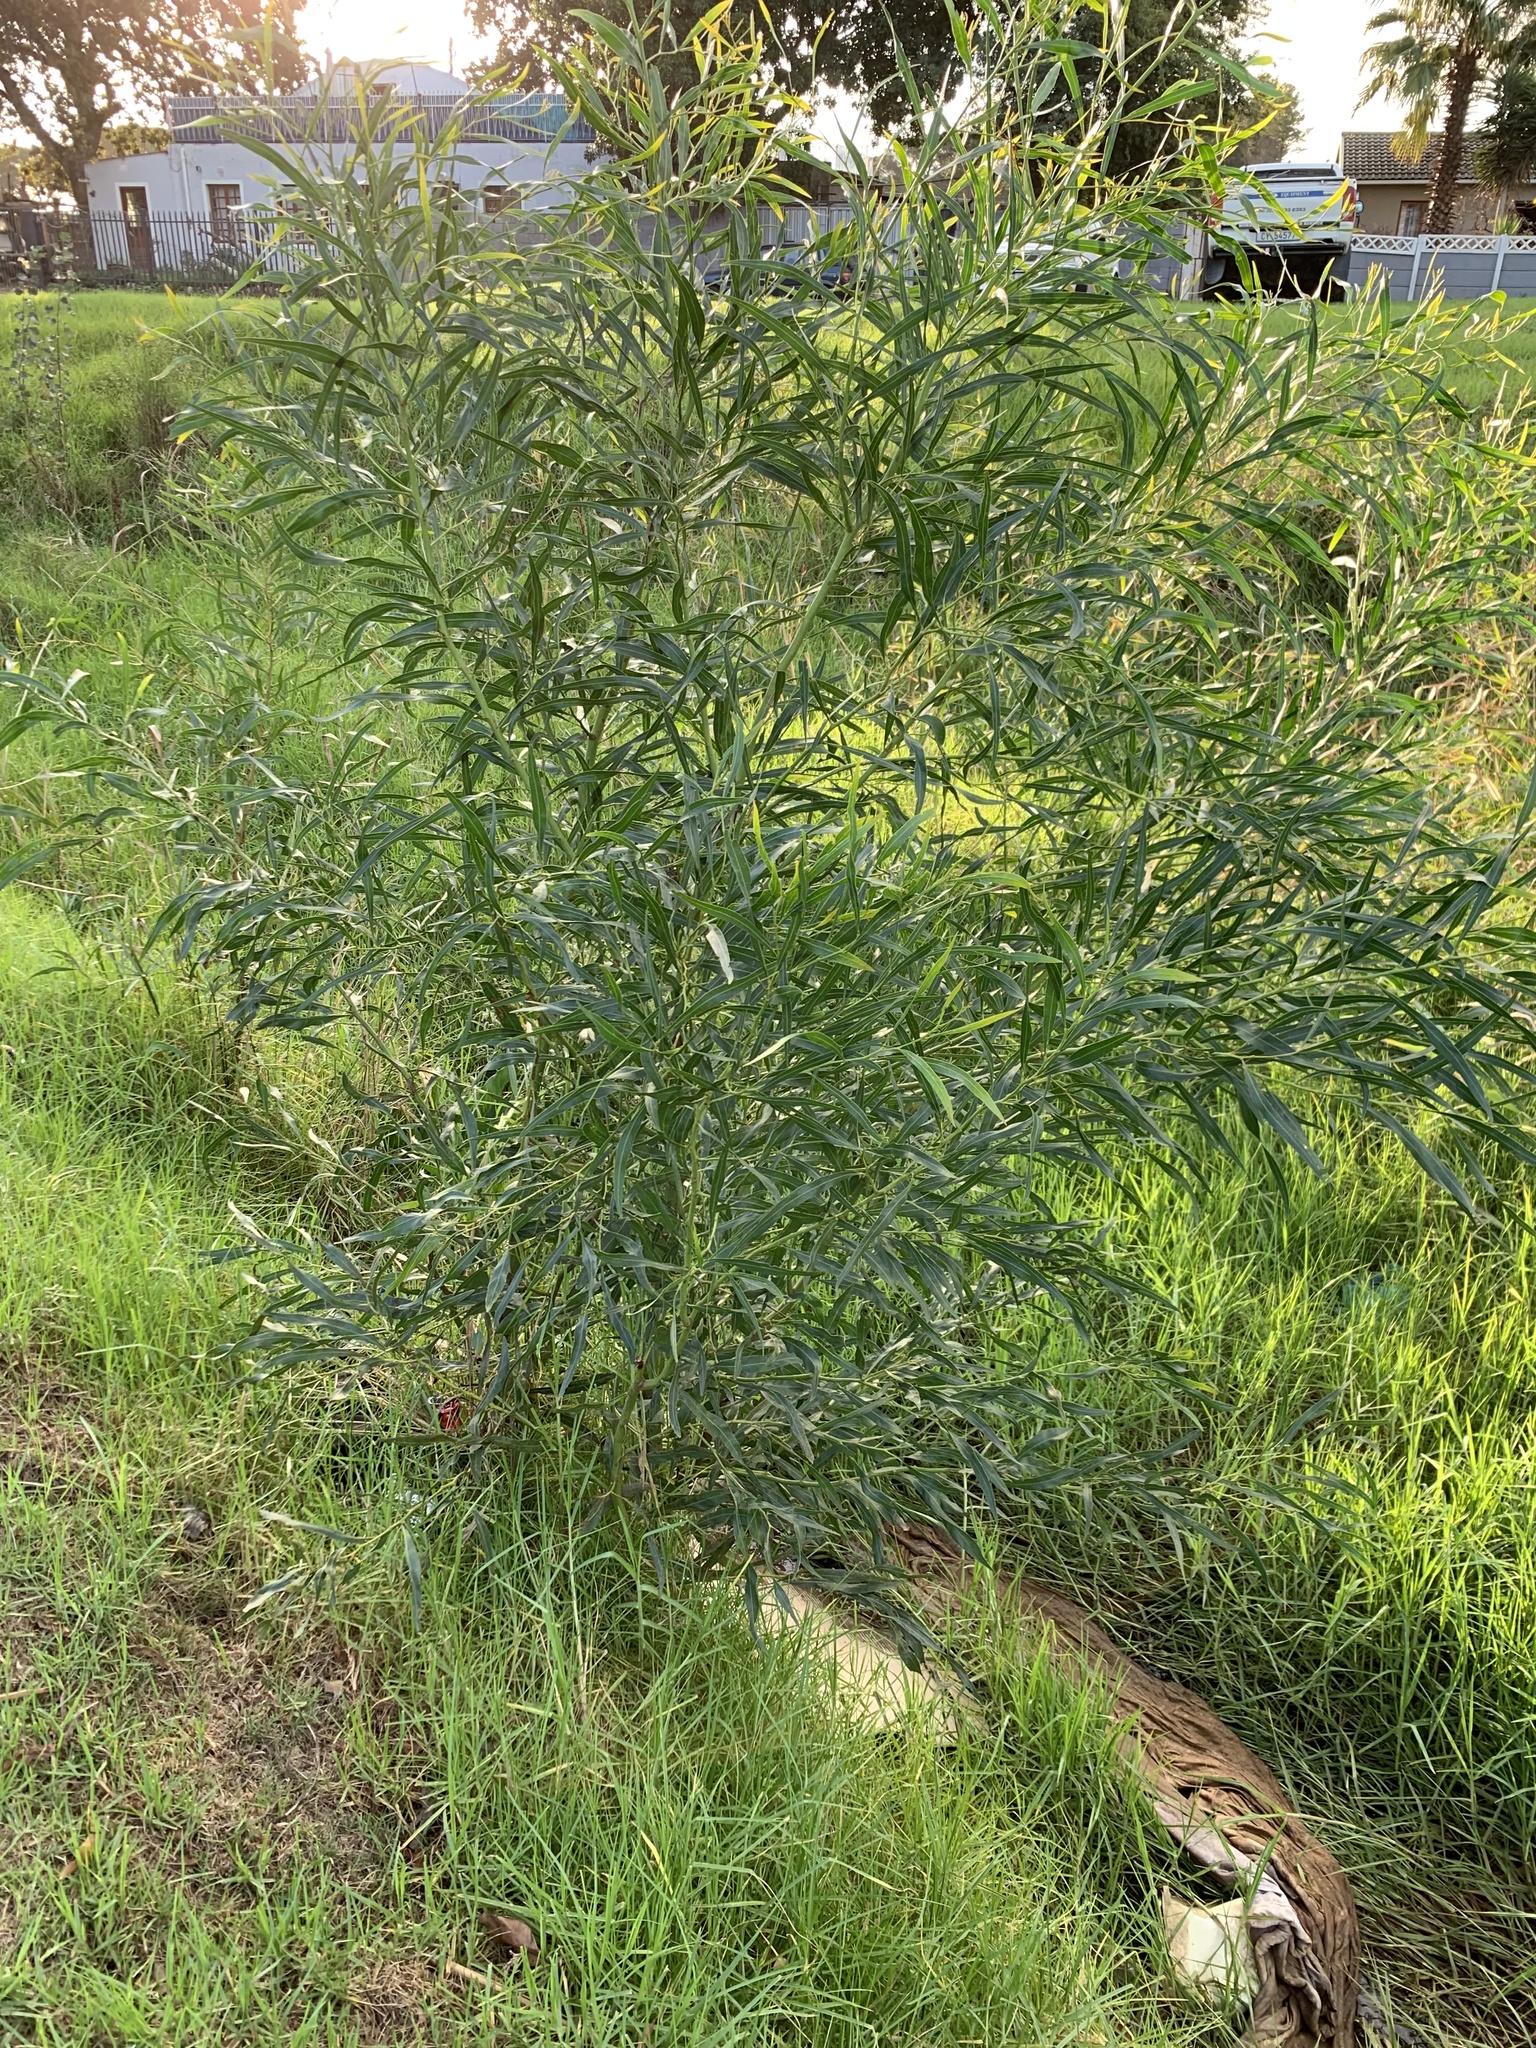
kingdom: Plantae
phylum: Tracheophyta
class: Magnoliopsida
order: Fabales
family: Fabaceae
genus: Acacia
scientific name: Acacia saligna
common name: Orange wattle
